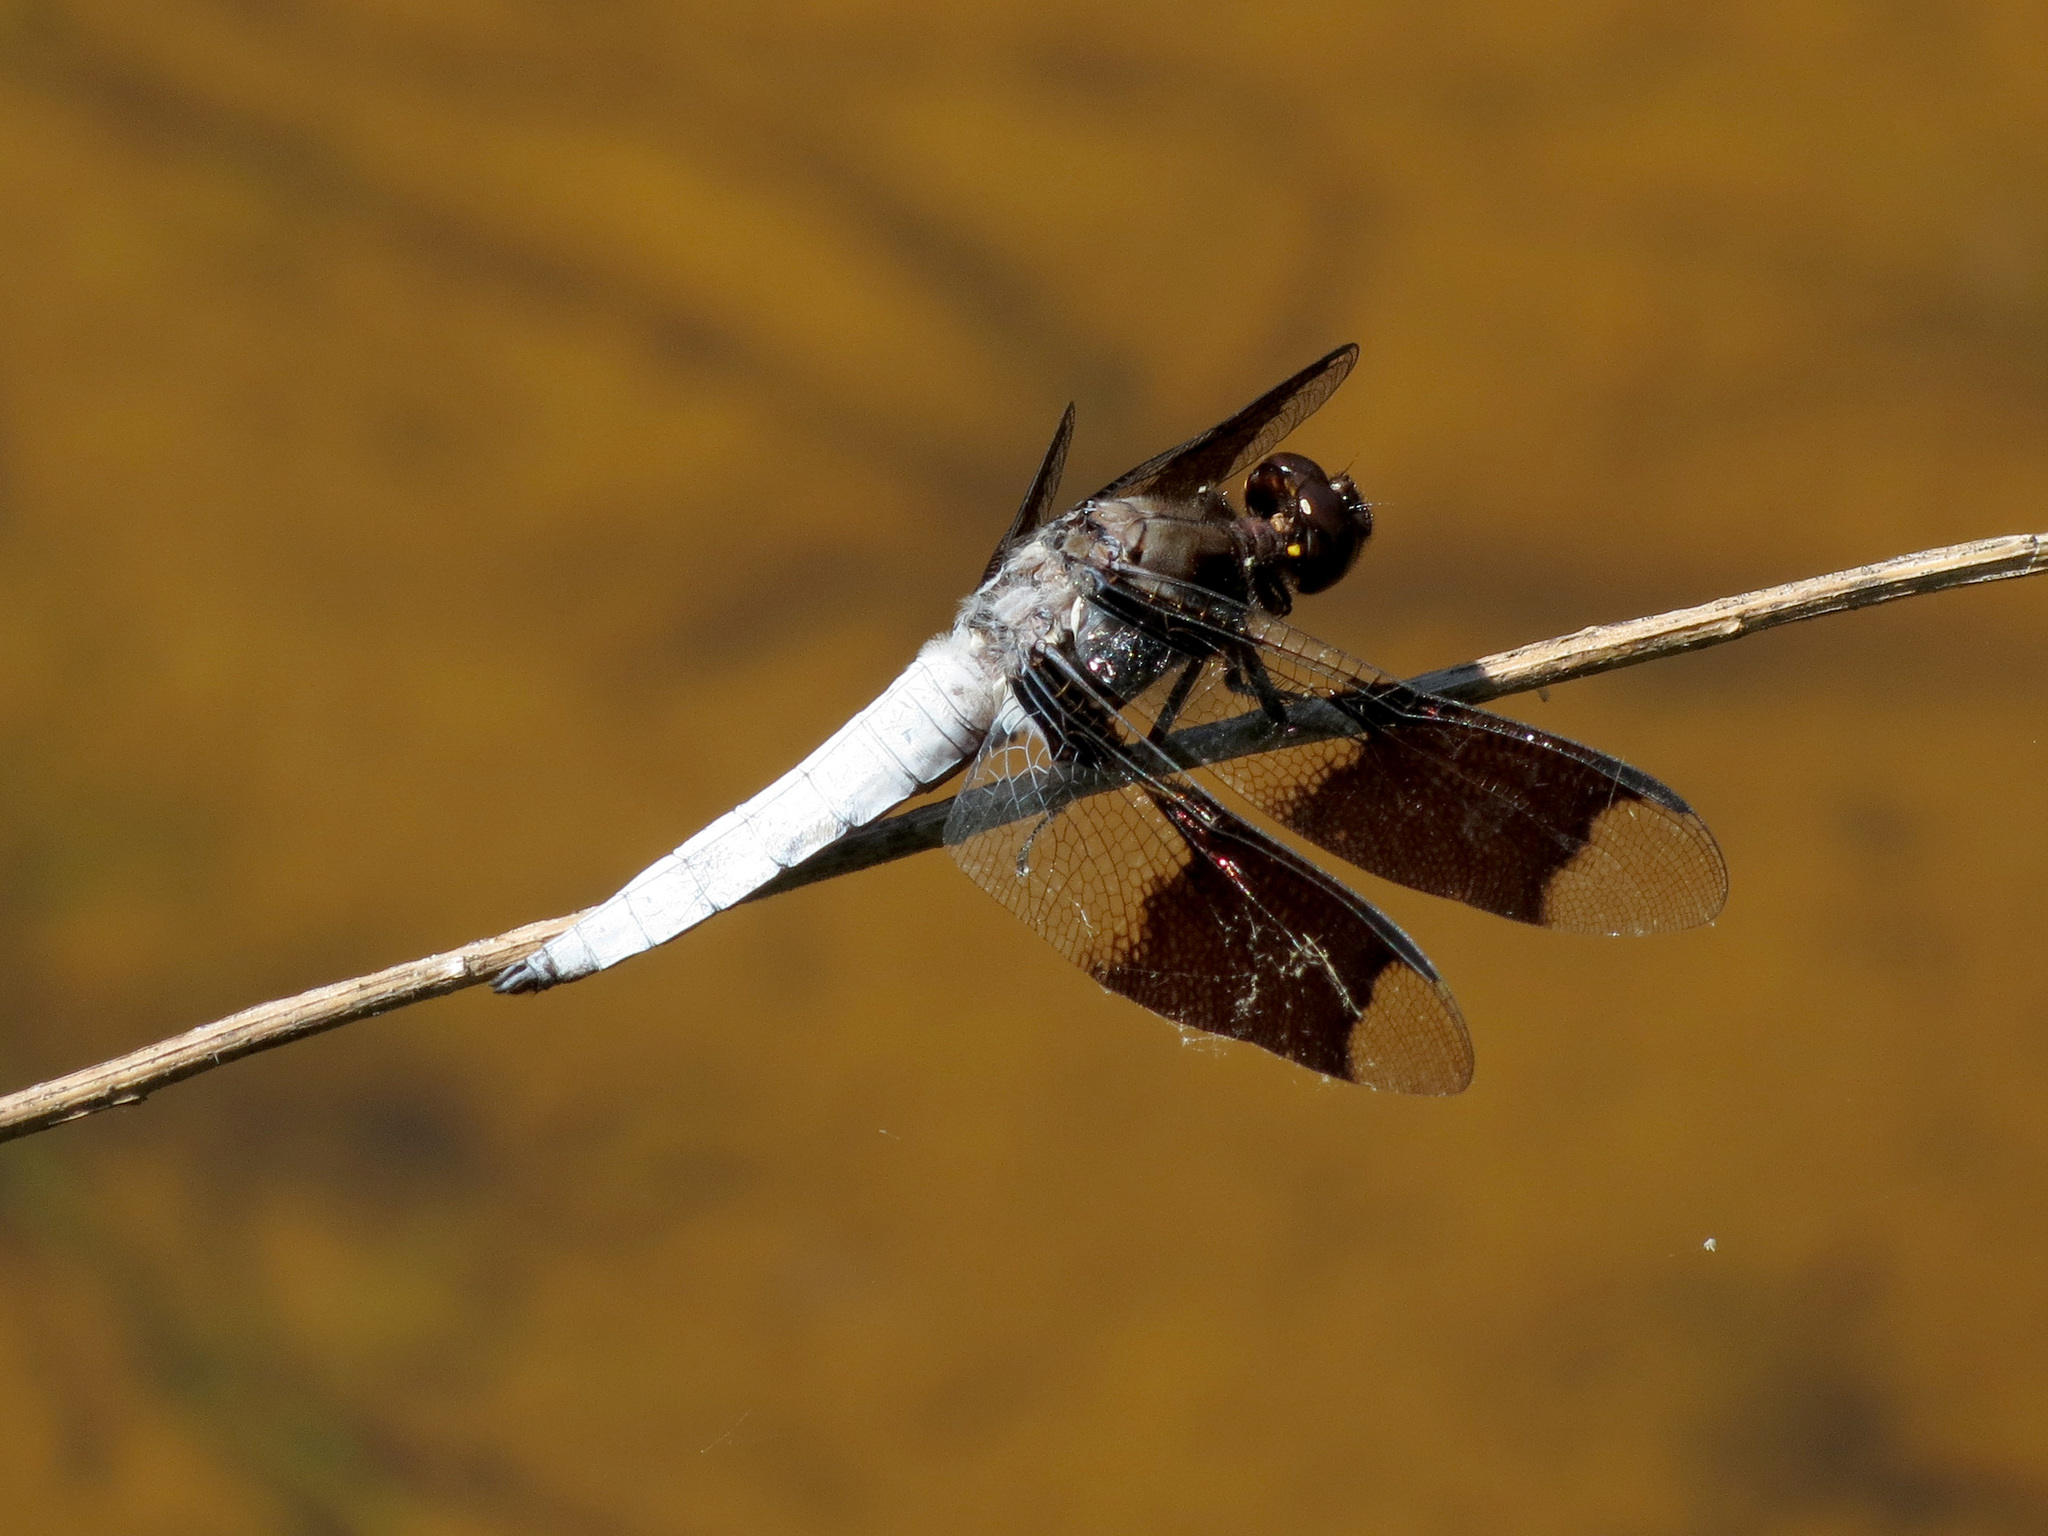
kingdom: Animalia
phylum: Arthropoda
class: Insecta
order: Odonata
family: Libellulidae
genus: Plathemis
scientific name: Plathemis lydia
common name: Common whitetail
